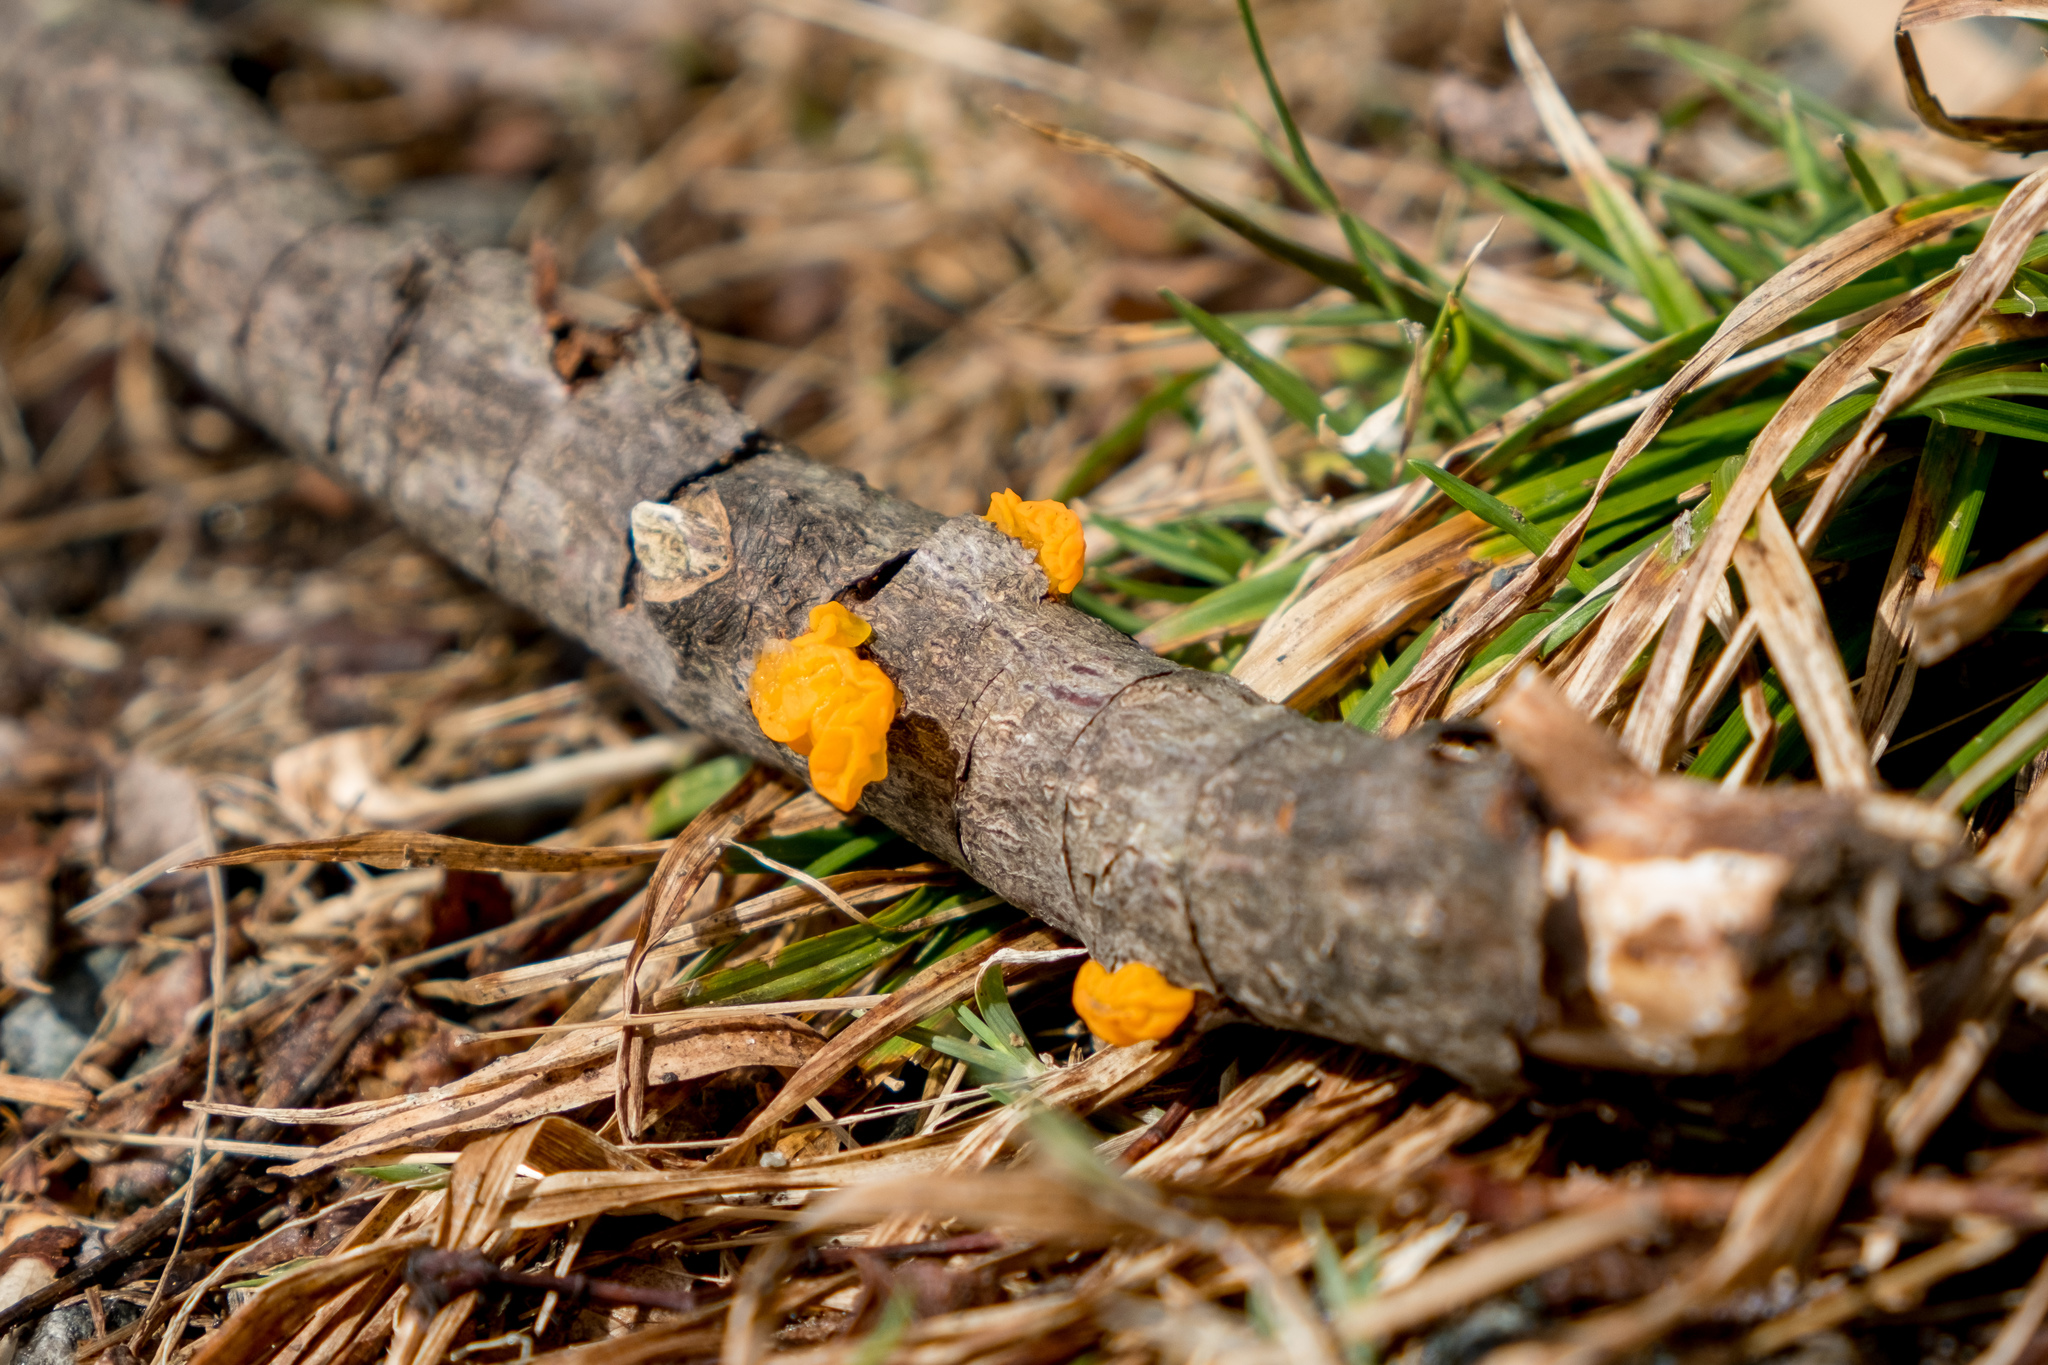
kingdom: Fungi
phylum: Basidiomycota
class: Tremellomycetes
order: Tremellales
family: Tremellaceae
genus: Tremella
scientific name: Tremella mesenterica
